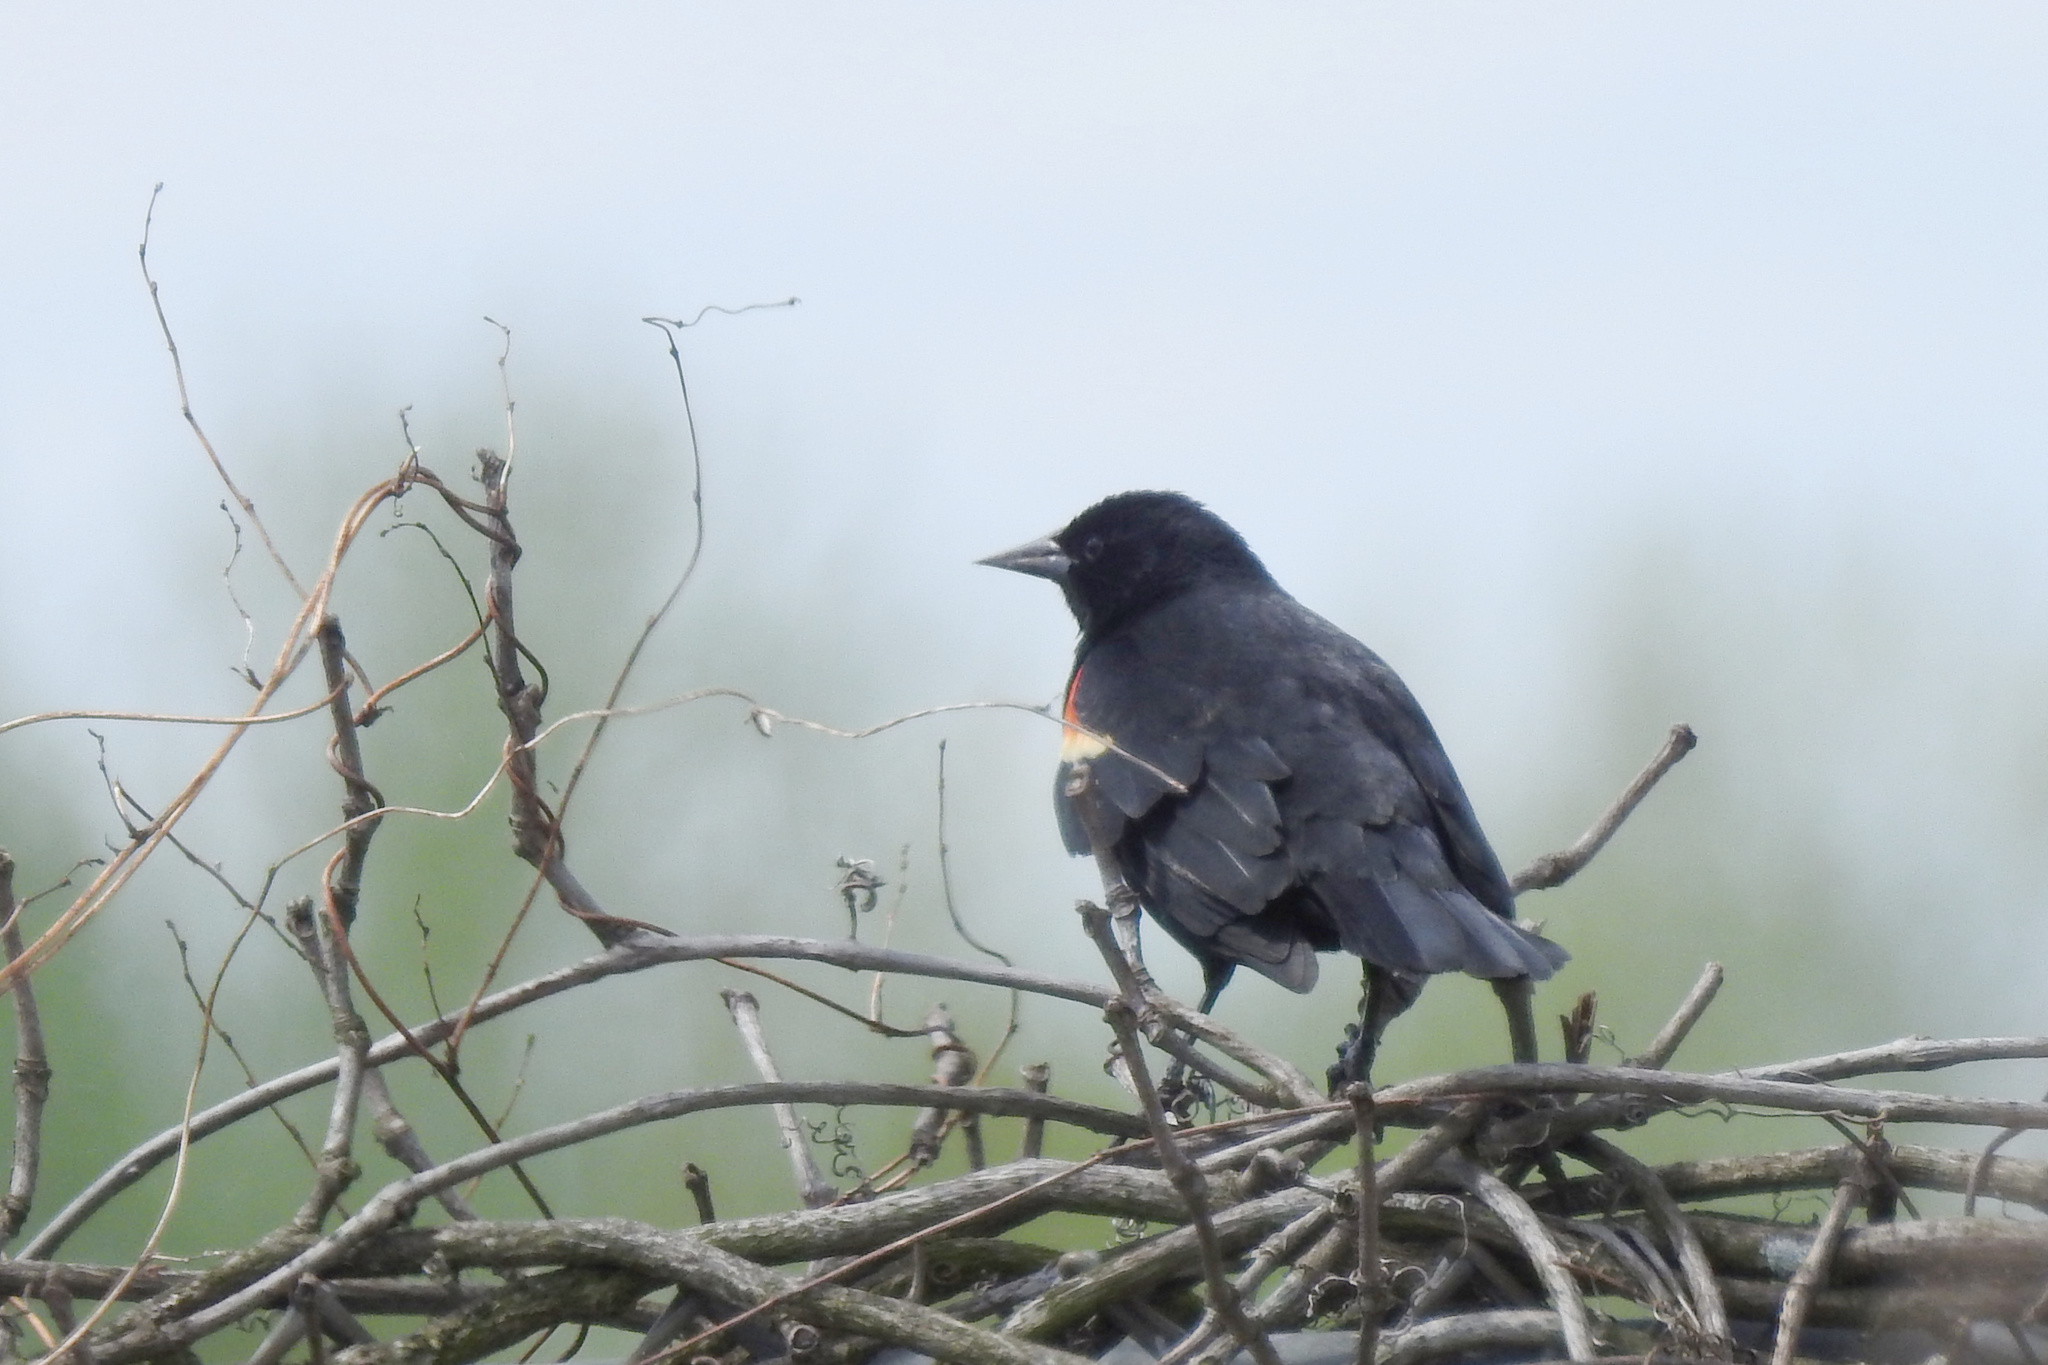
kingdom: Animalia
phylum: Chordata
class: Aves
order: Passeriformes
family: Icteridae
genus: Agelaius
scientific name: Agelaius phoeniceus
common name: Red-winged blackbird
